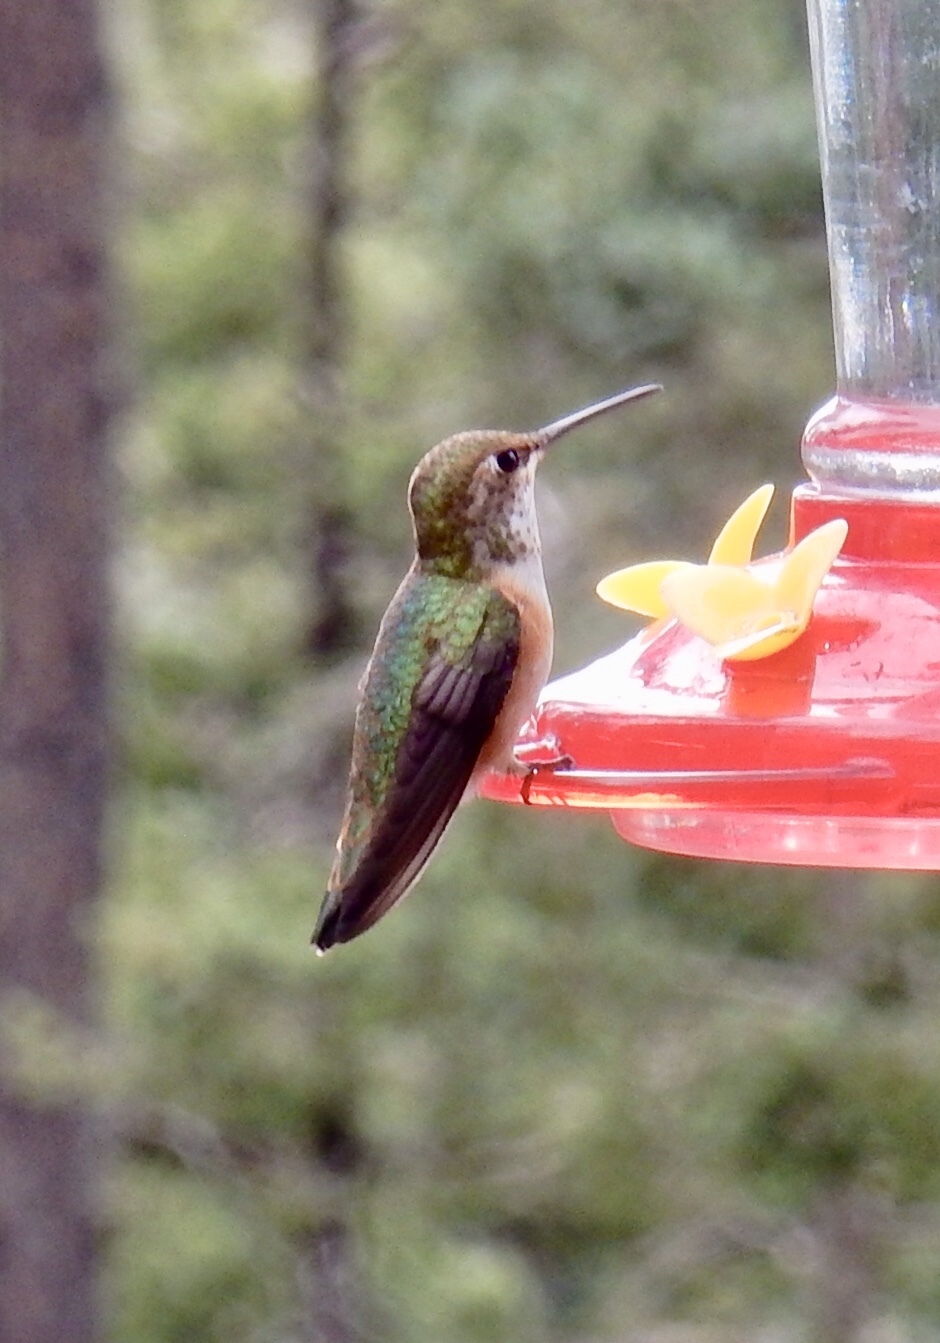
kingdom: Animalia
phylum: Chordata
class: Aves
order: Apodiformes
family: Trochilidae
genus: Selasphorus
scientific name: Selasphorus rufus
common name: Rufous hummingbird
